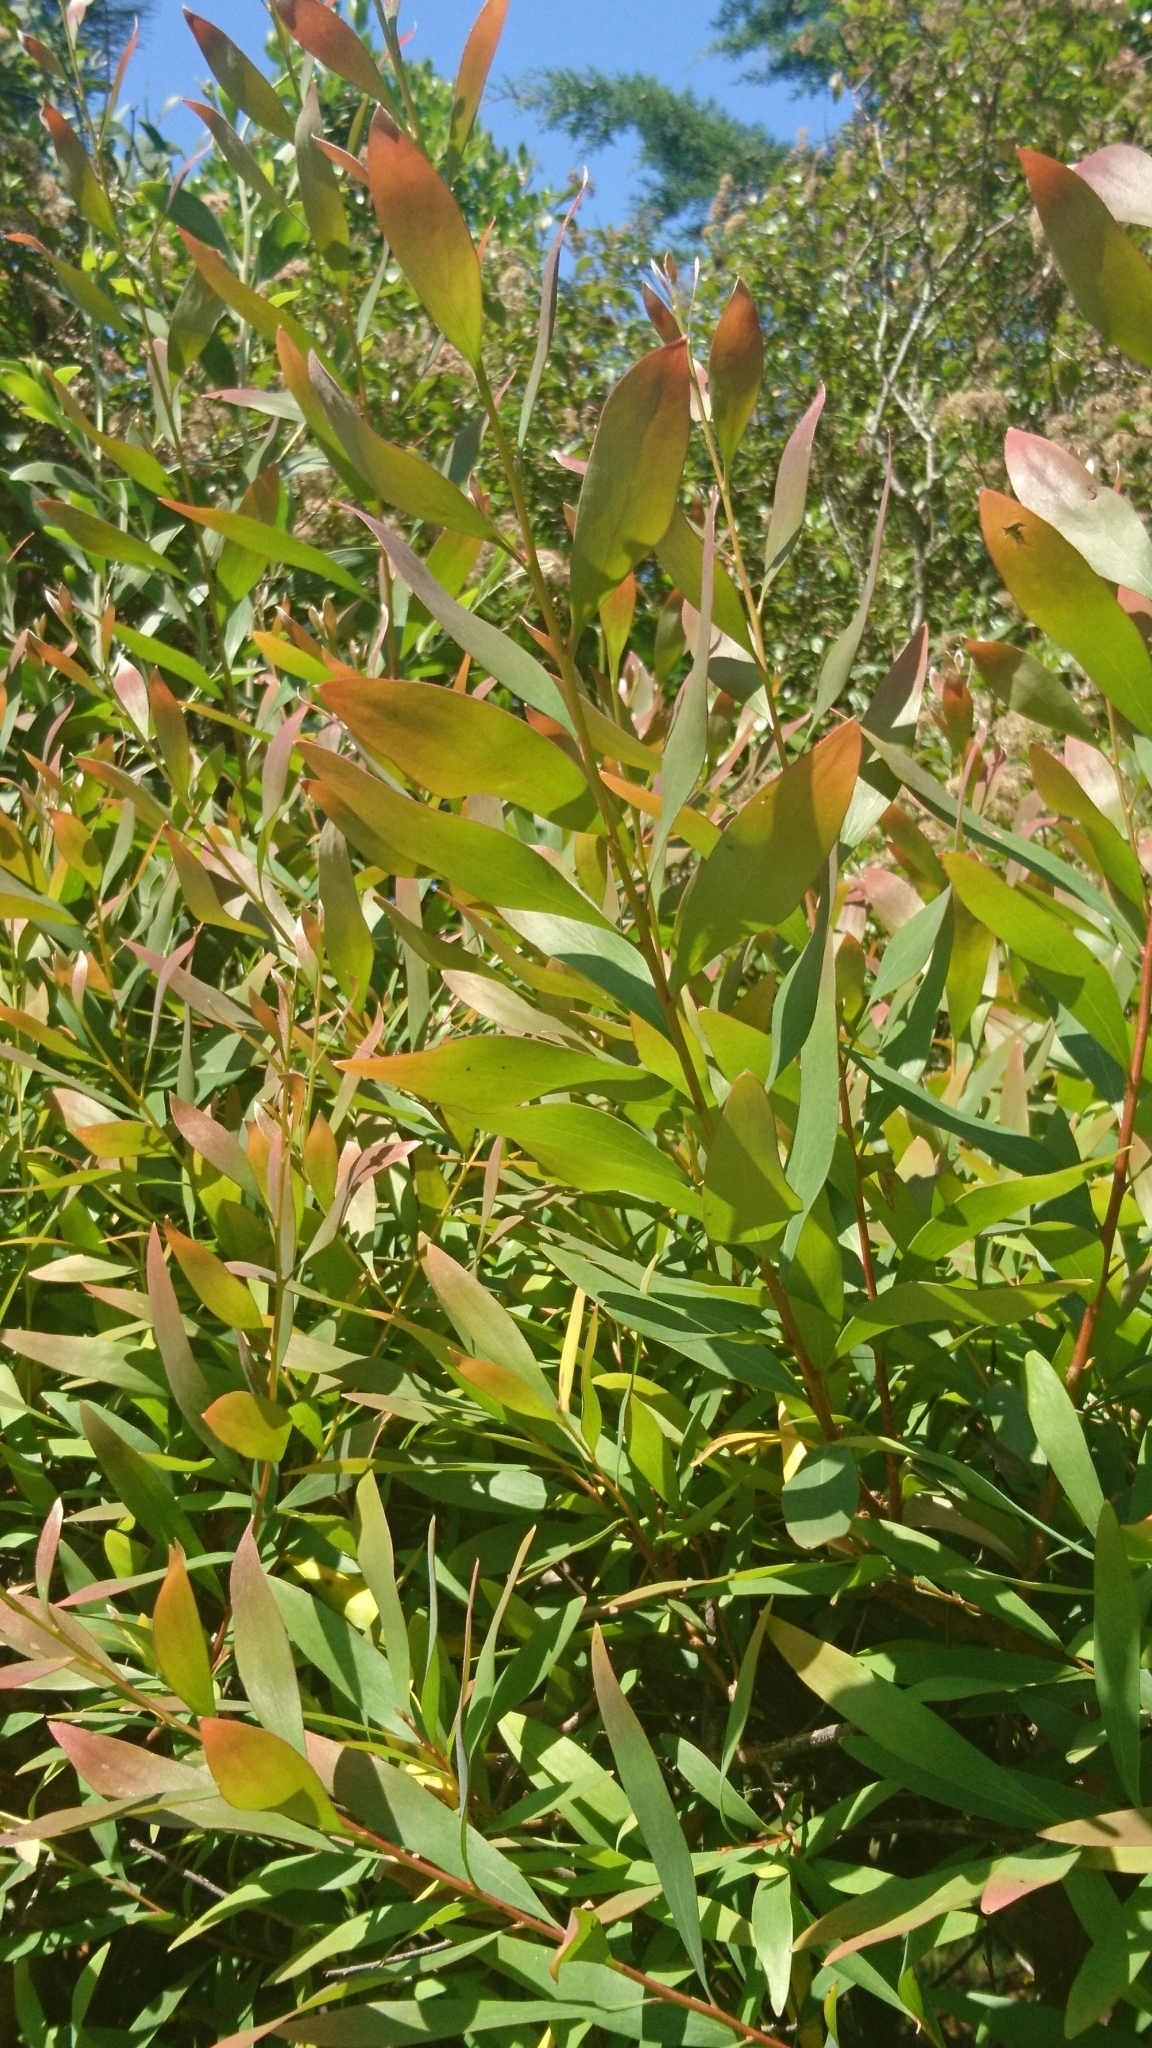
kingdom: Plantae
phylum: Tracheophyta
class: Magnoliopsida
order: Proteales
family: Proteaceae
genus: Hakea
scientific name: Hakea salicifolia
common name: Willow hakea
